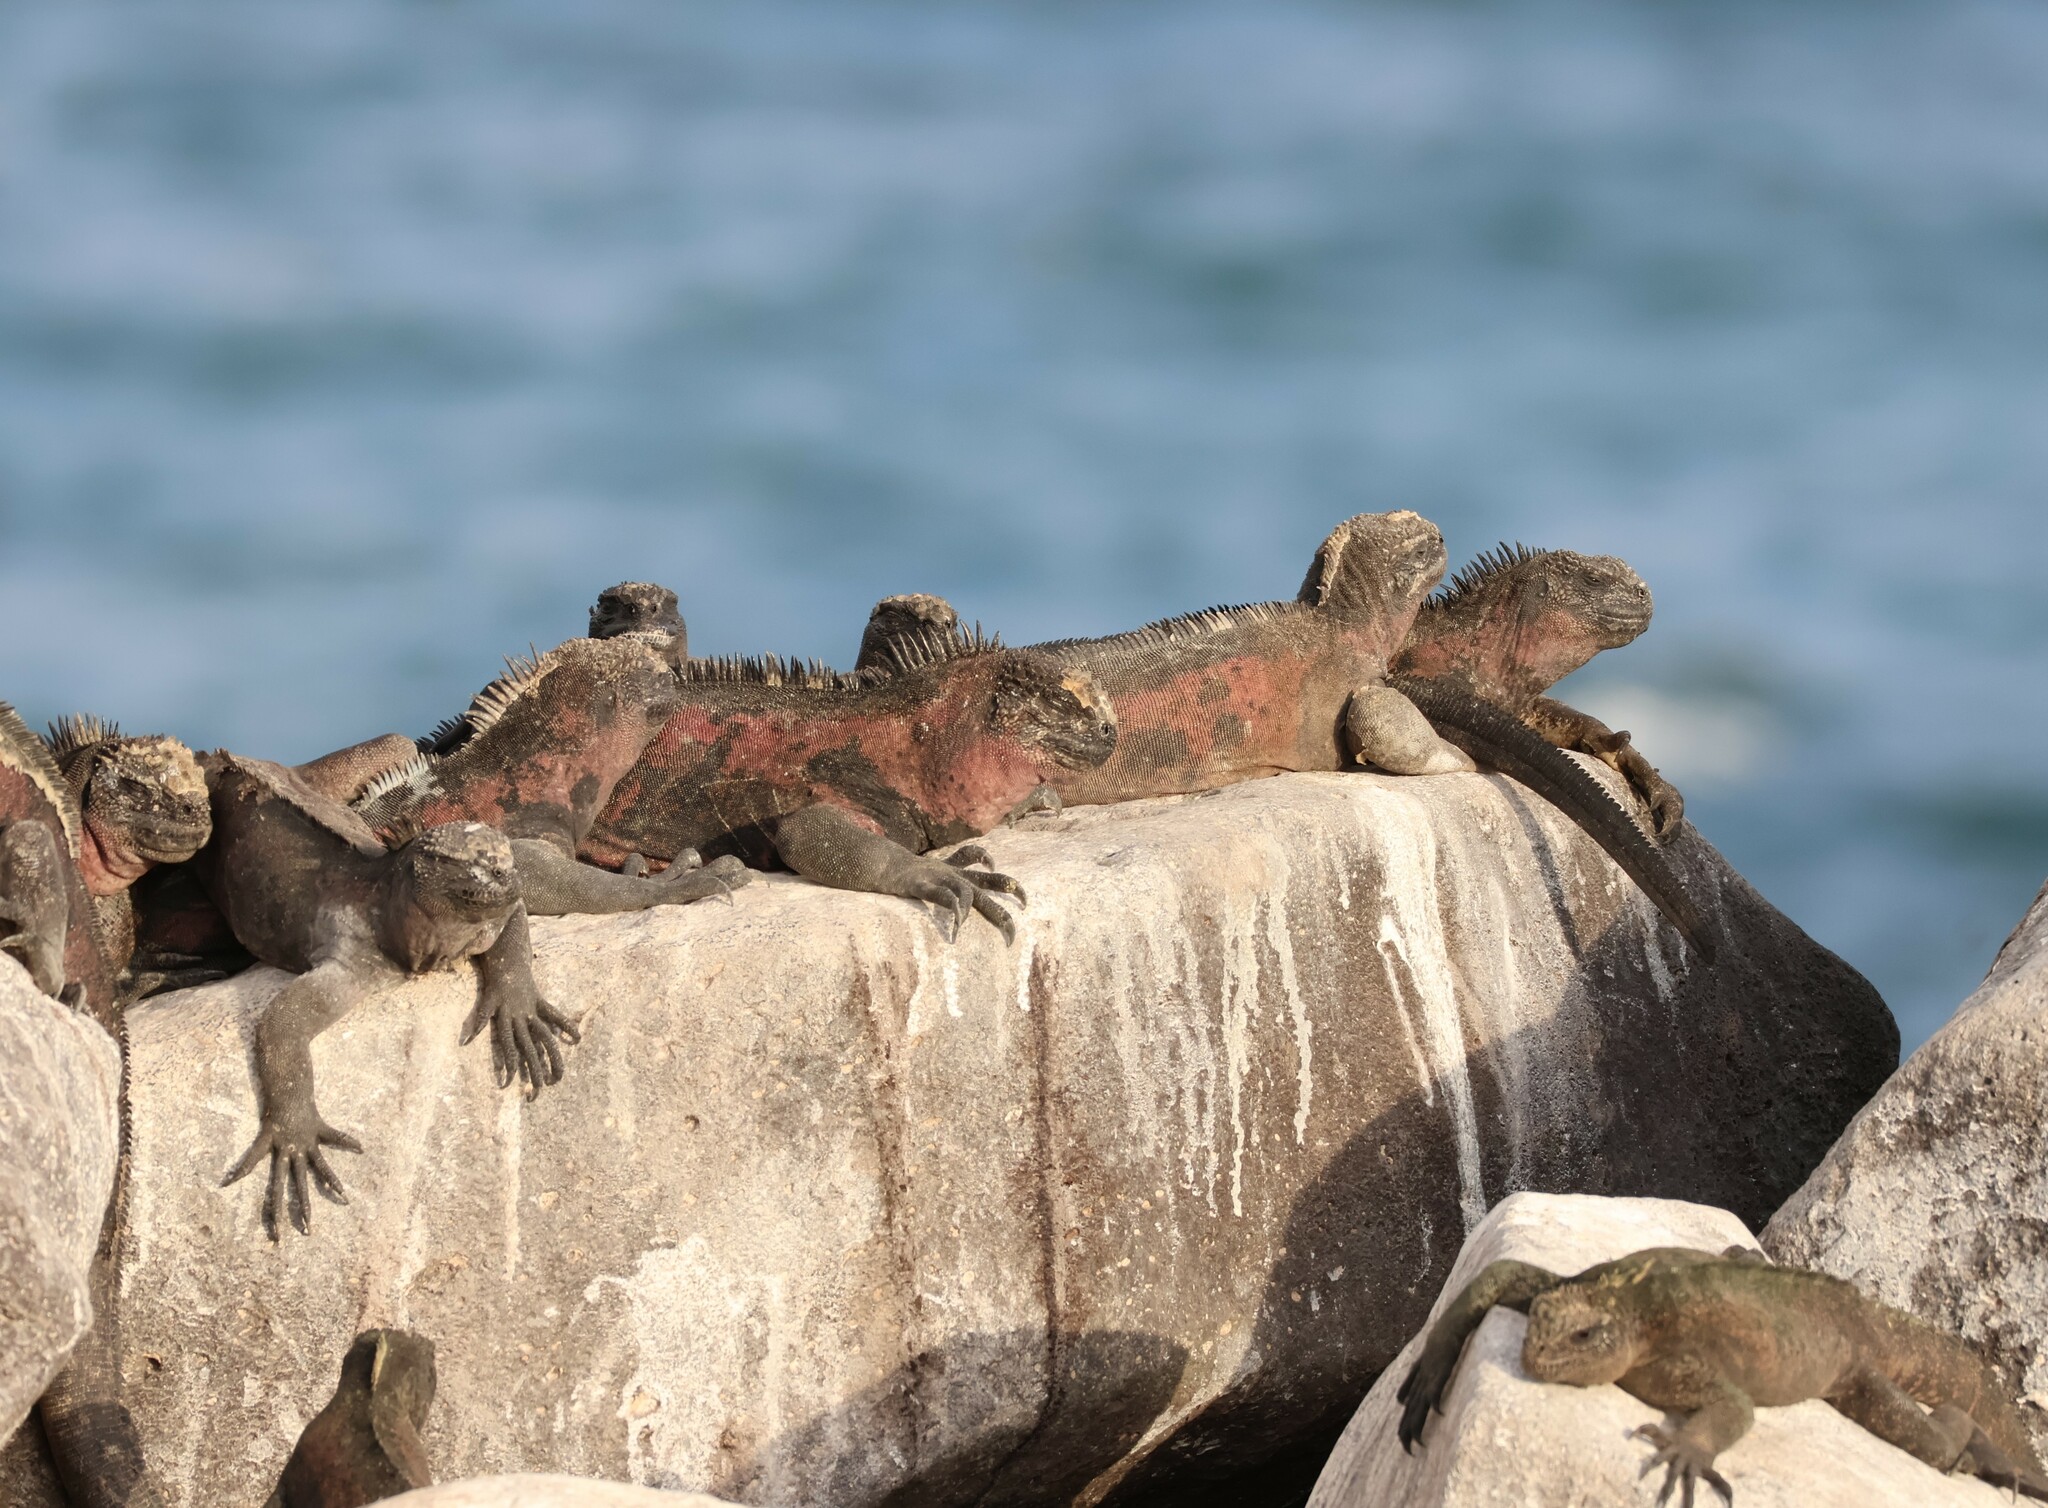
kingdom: Animalia
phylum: Chordata
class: Squamata
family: Iguanidae
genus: Amblyrhynchus
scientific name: Amblyrhynchus cristatus
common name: Marine iguana
